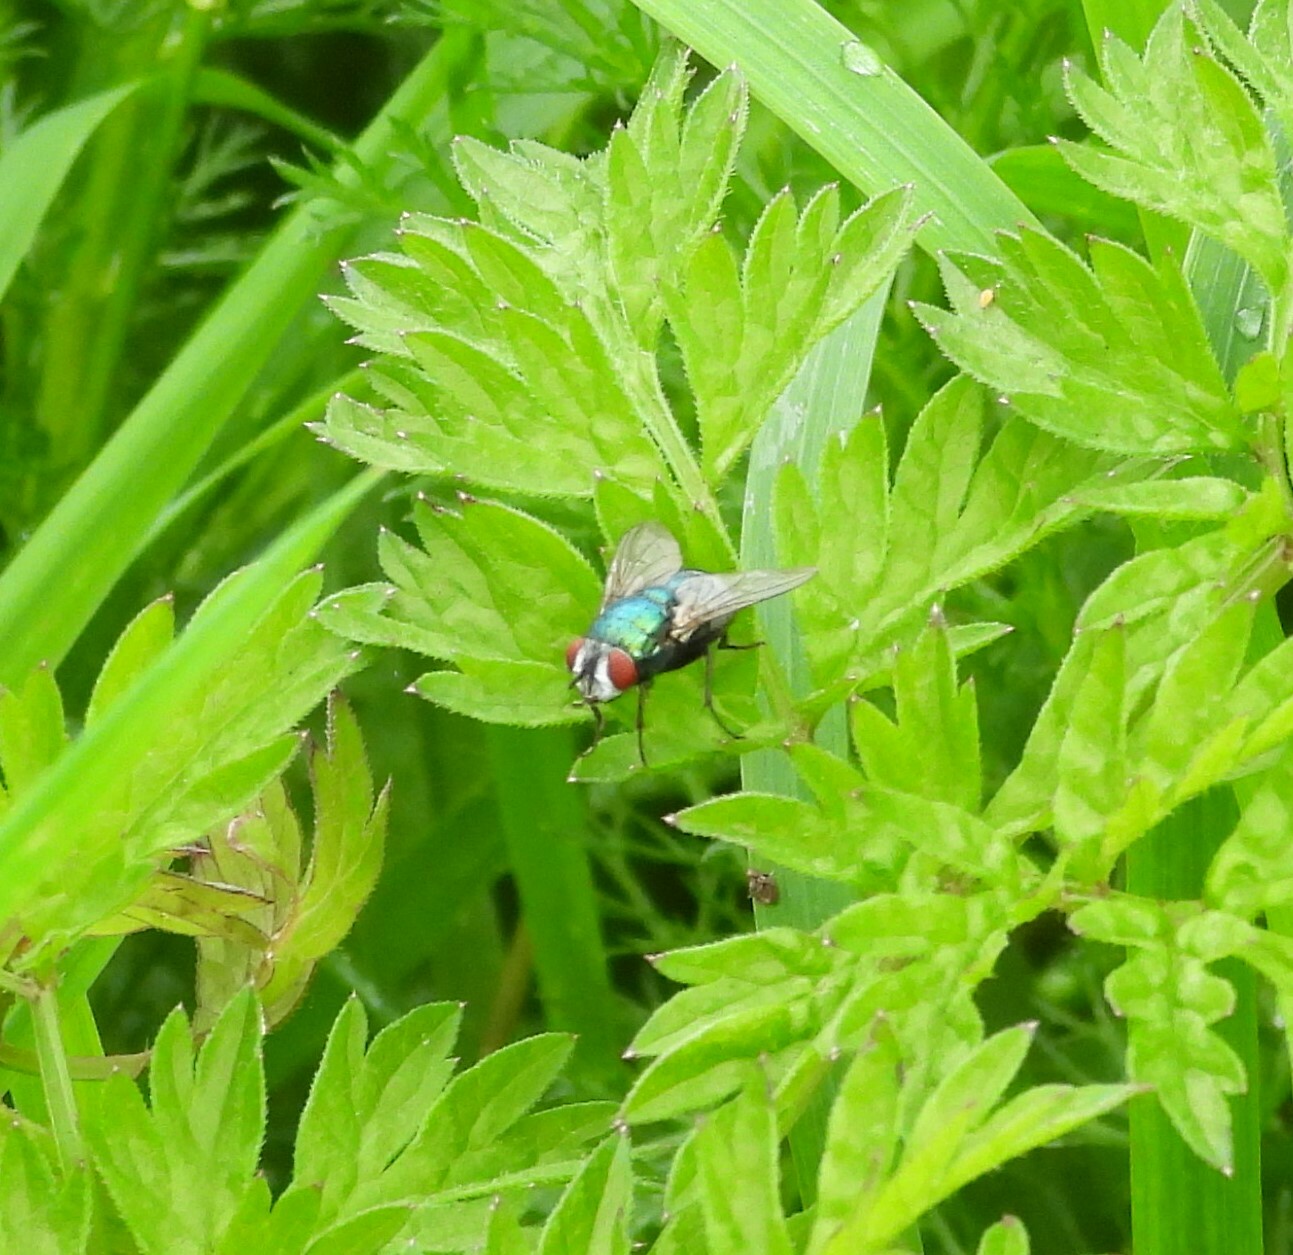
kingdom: Animalia
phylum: Arthropoda
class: Insecta
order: Diptera
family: Calliphoridae
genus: Lucilia
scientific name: Lucilia
